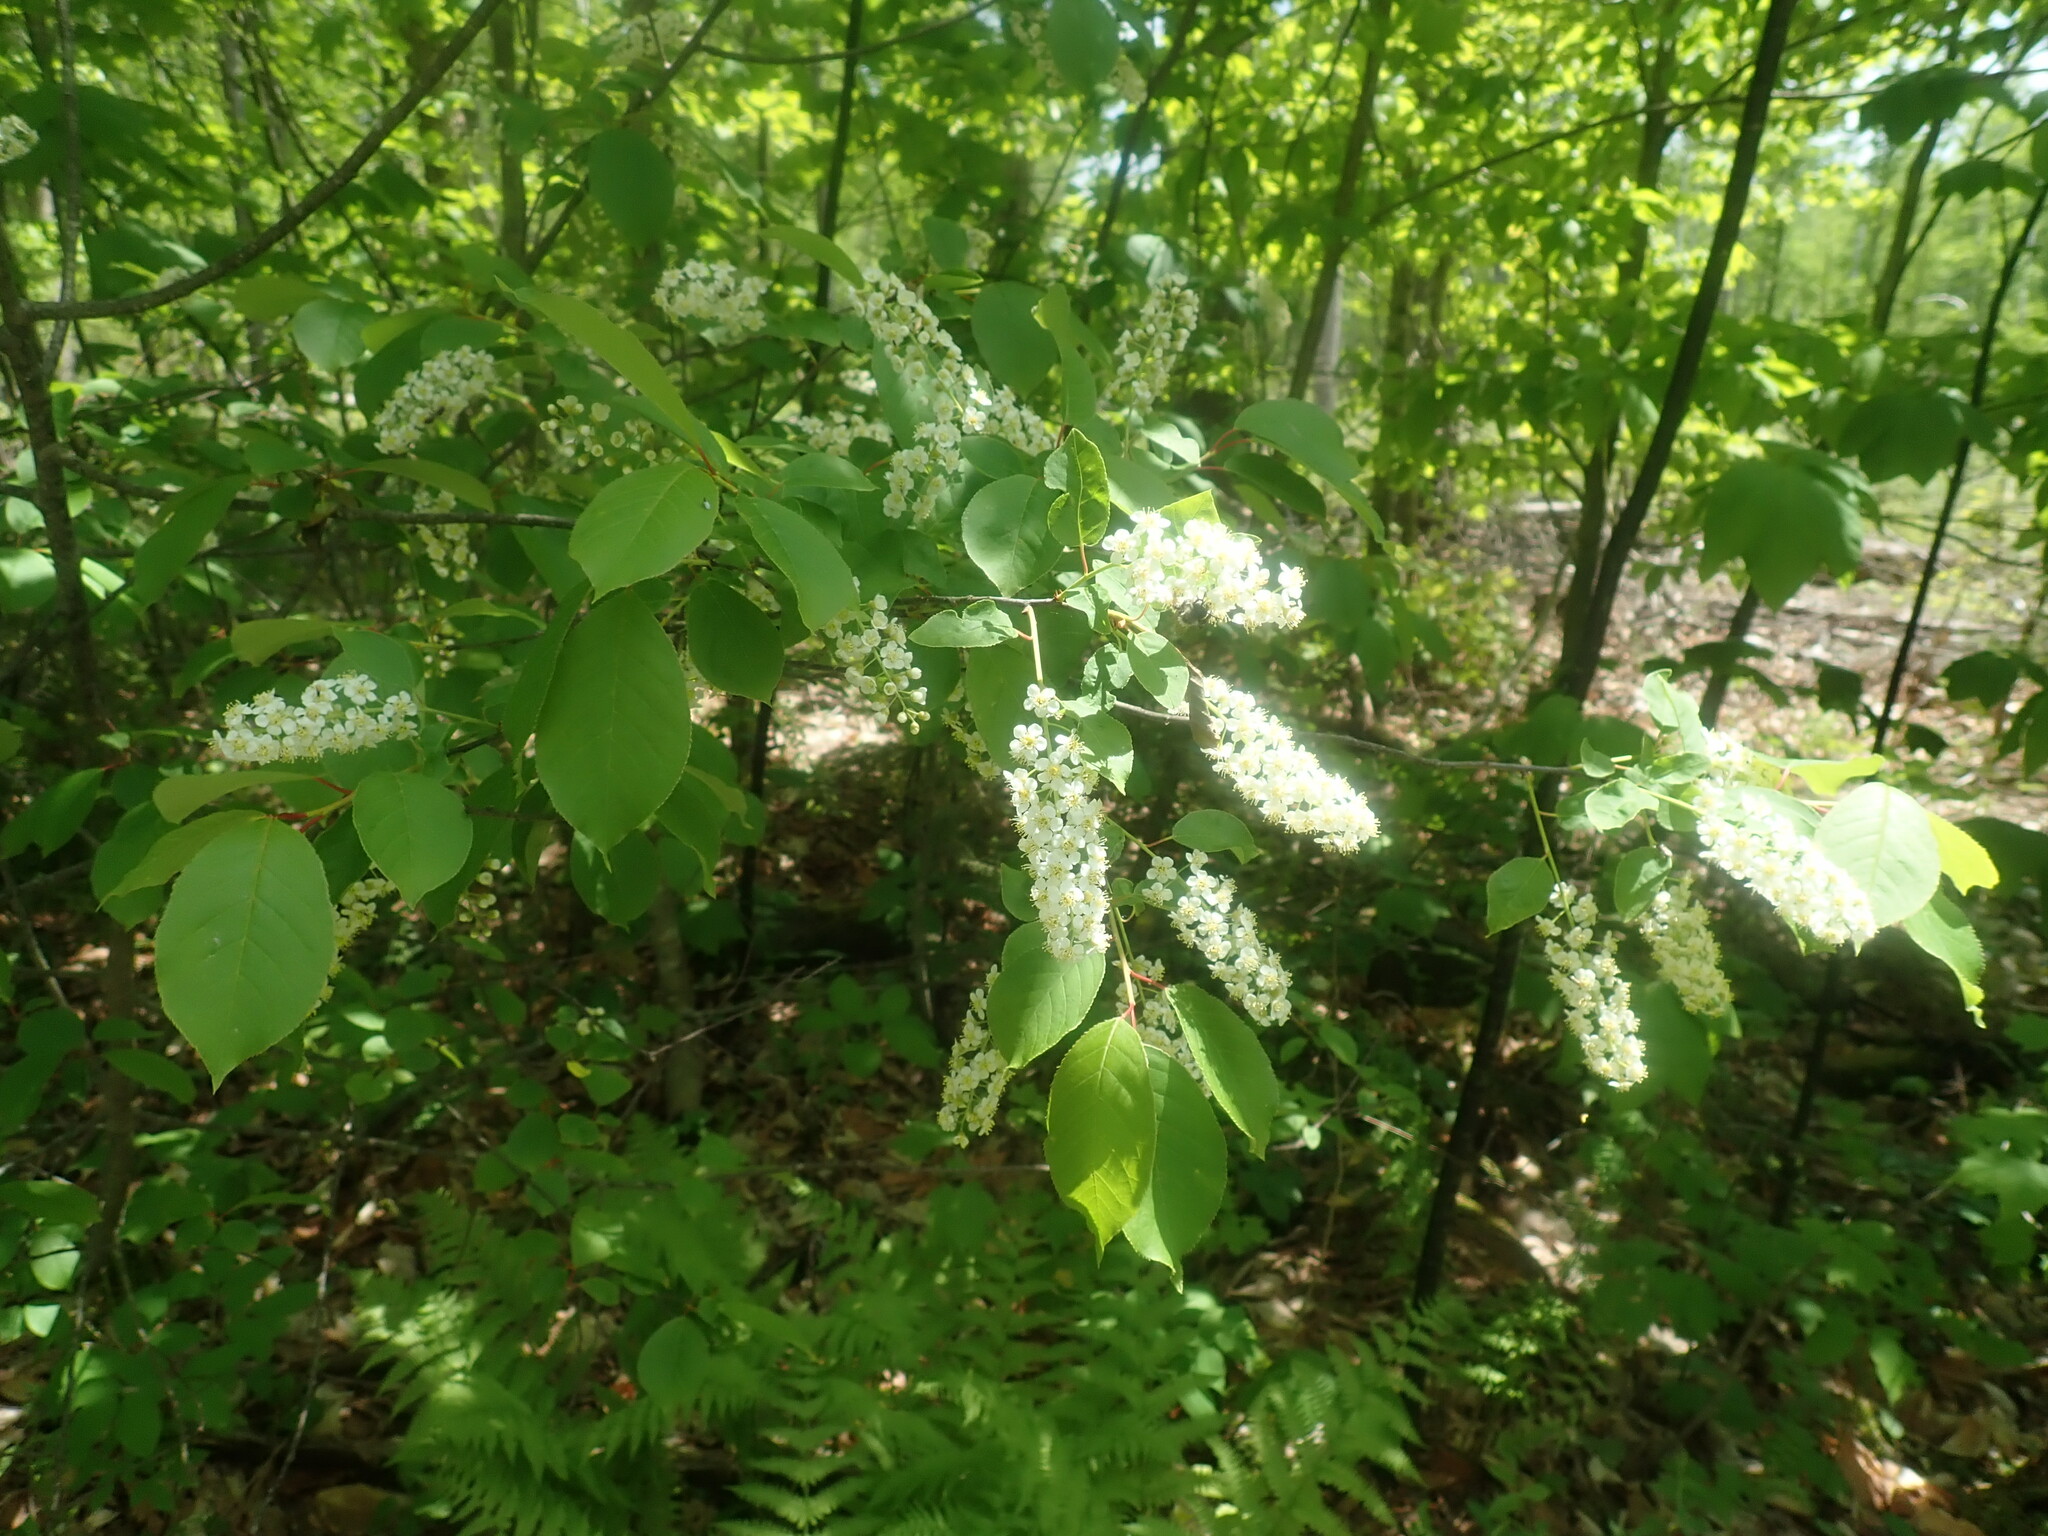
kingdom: Plantae
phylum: Tracheophyta
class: Magnoliopsida
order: Rosales
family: Rosaceae
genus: Prunus
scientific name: Prunus virginiana
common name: Chokecherry
